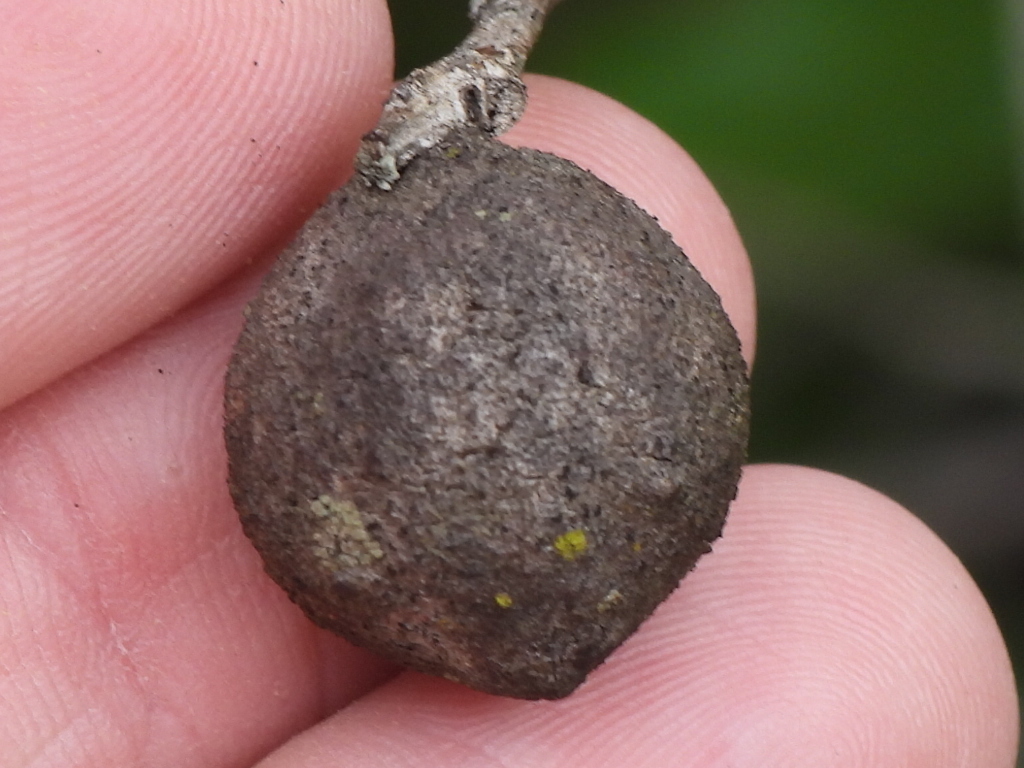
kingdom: Animalia
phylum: Arthropoda
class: Insecta
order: Hymenoptera
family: Cynipidae
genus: Disholcaspis
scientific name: Disholcaspis
